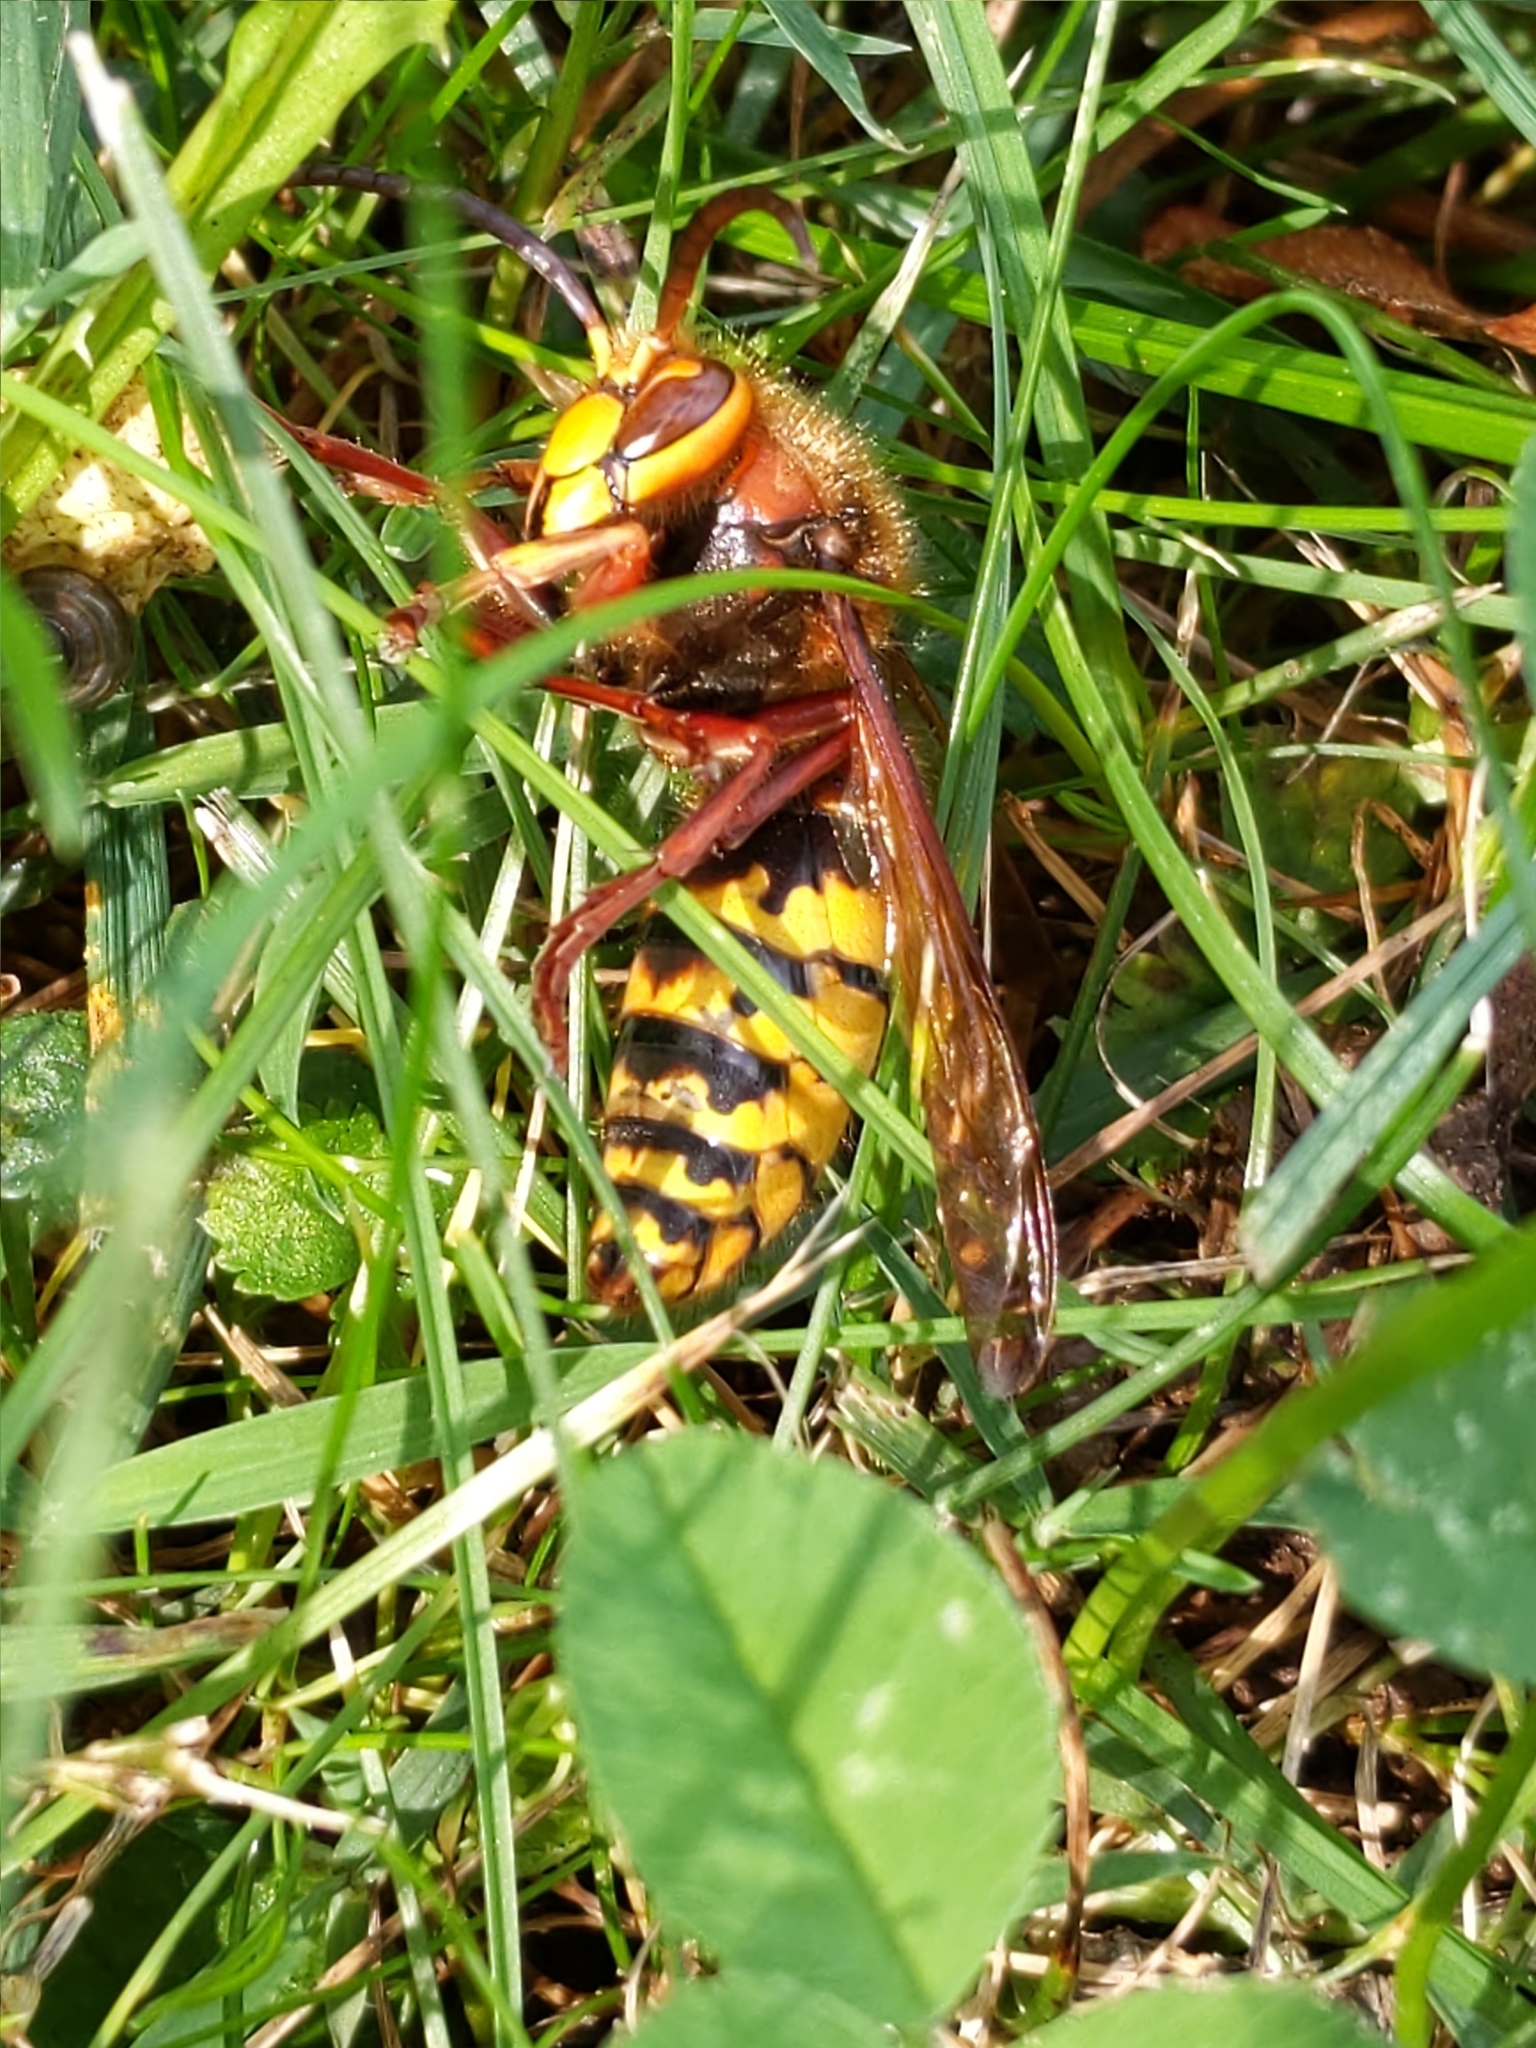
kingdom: Animalia
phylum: Arthropoda
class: Insecta
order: Hymenoptera
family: Vespidae
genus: Vespa
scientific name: Vespa crabro
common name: Hornet
